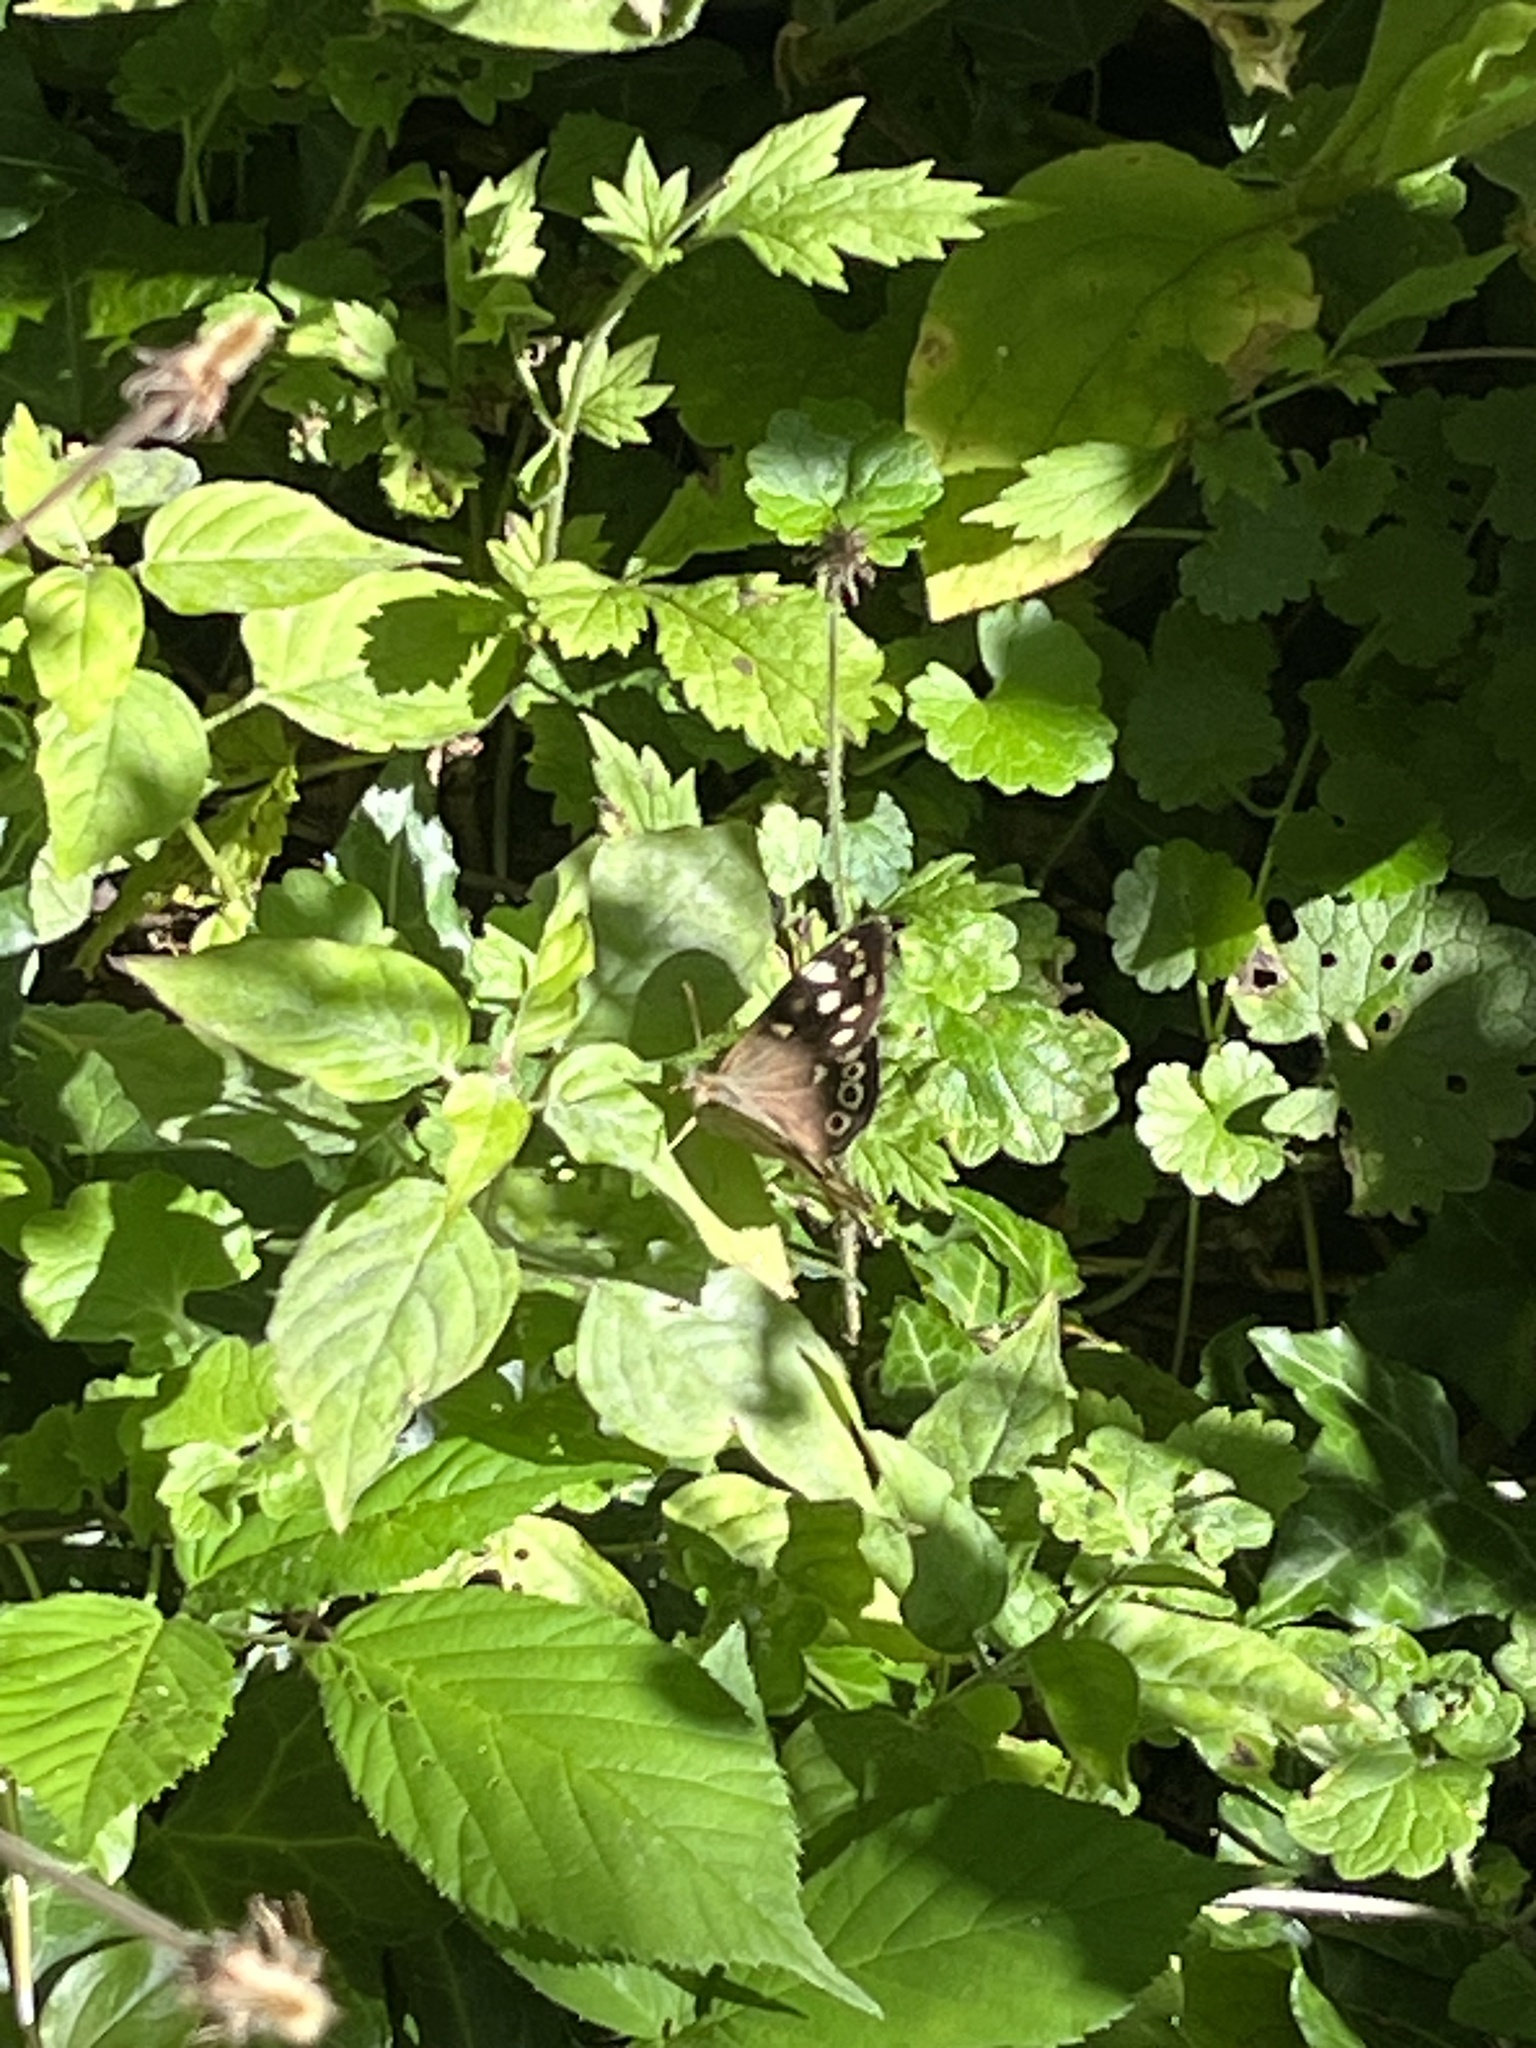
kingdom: Animalia
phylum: Arthropoda
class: Insecta
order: Lepidoptera
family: Nymphalidae
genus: Pararge
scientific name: Pararge aegeria
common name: Speckled wood
